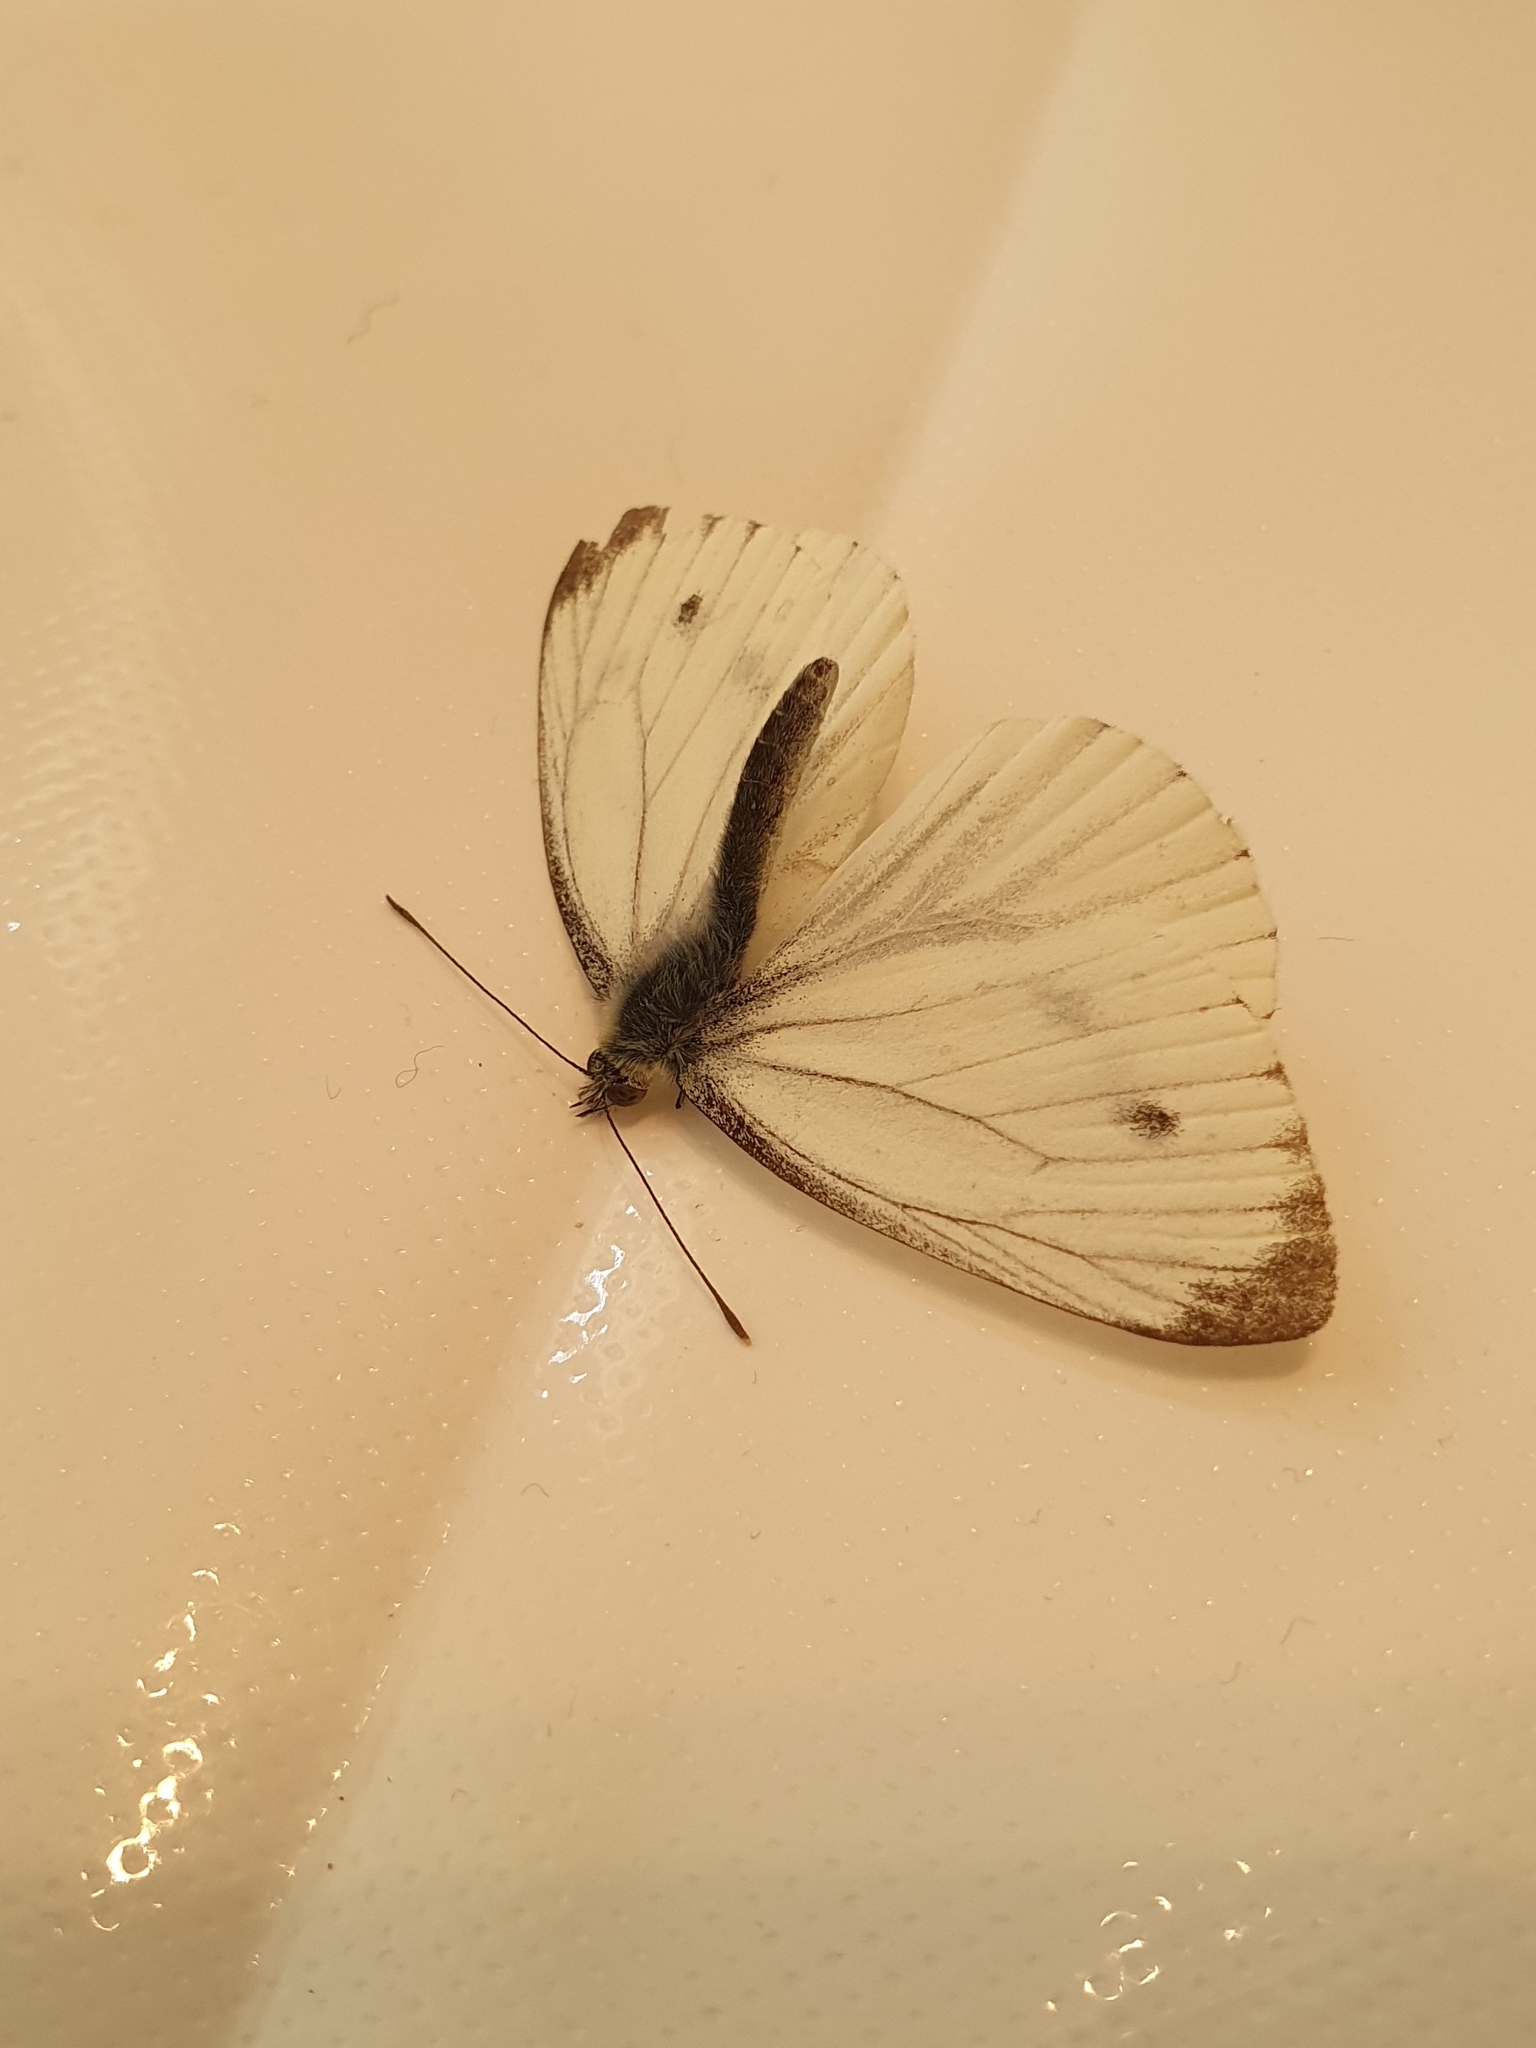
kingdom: Animalia
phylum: Arthropoda
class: Insecta
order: Lepidoptera
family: Pieridae
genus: Pieris
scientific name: Pieris napi
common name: Green-veined white
